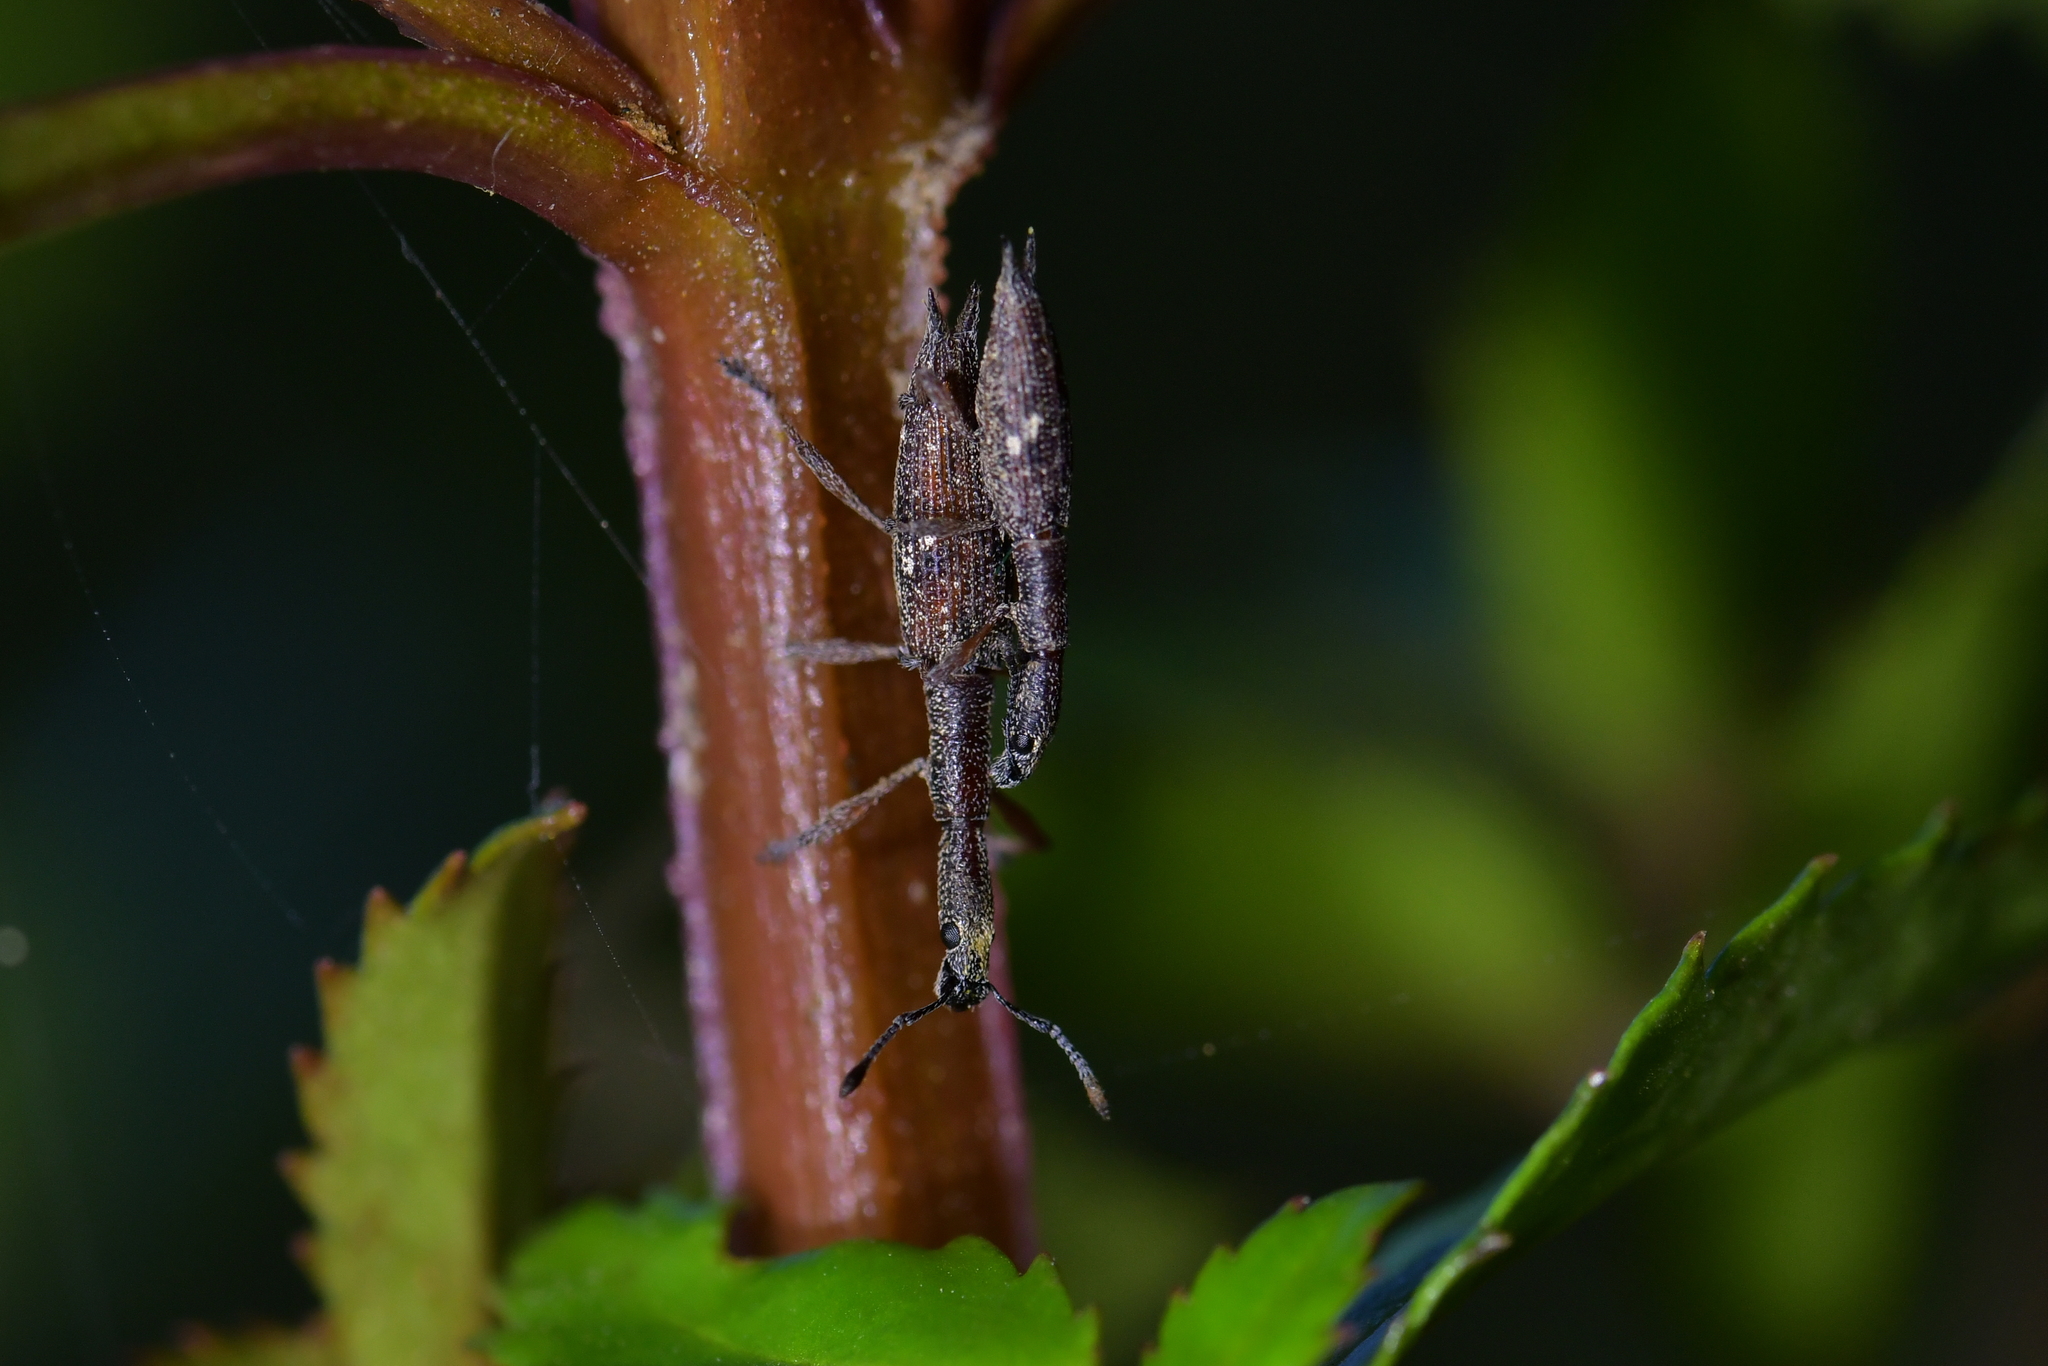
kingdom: Animalia
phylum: Arthropoda
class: Insecta
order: Coleoptera
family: Curculionidae
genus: Rhadinosomus
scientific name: Rhadinosomus acuminatus
